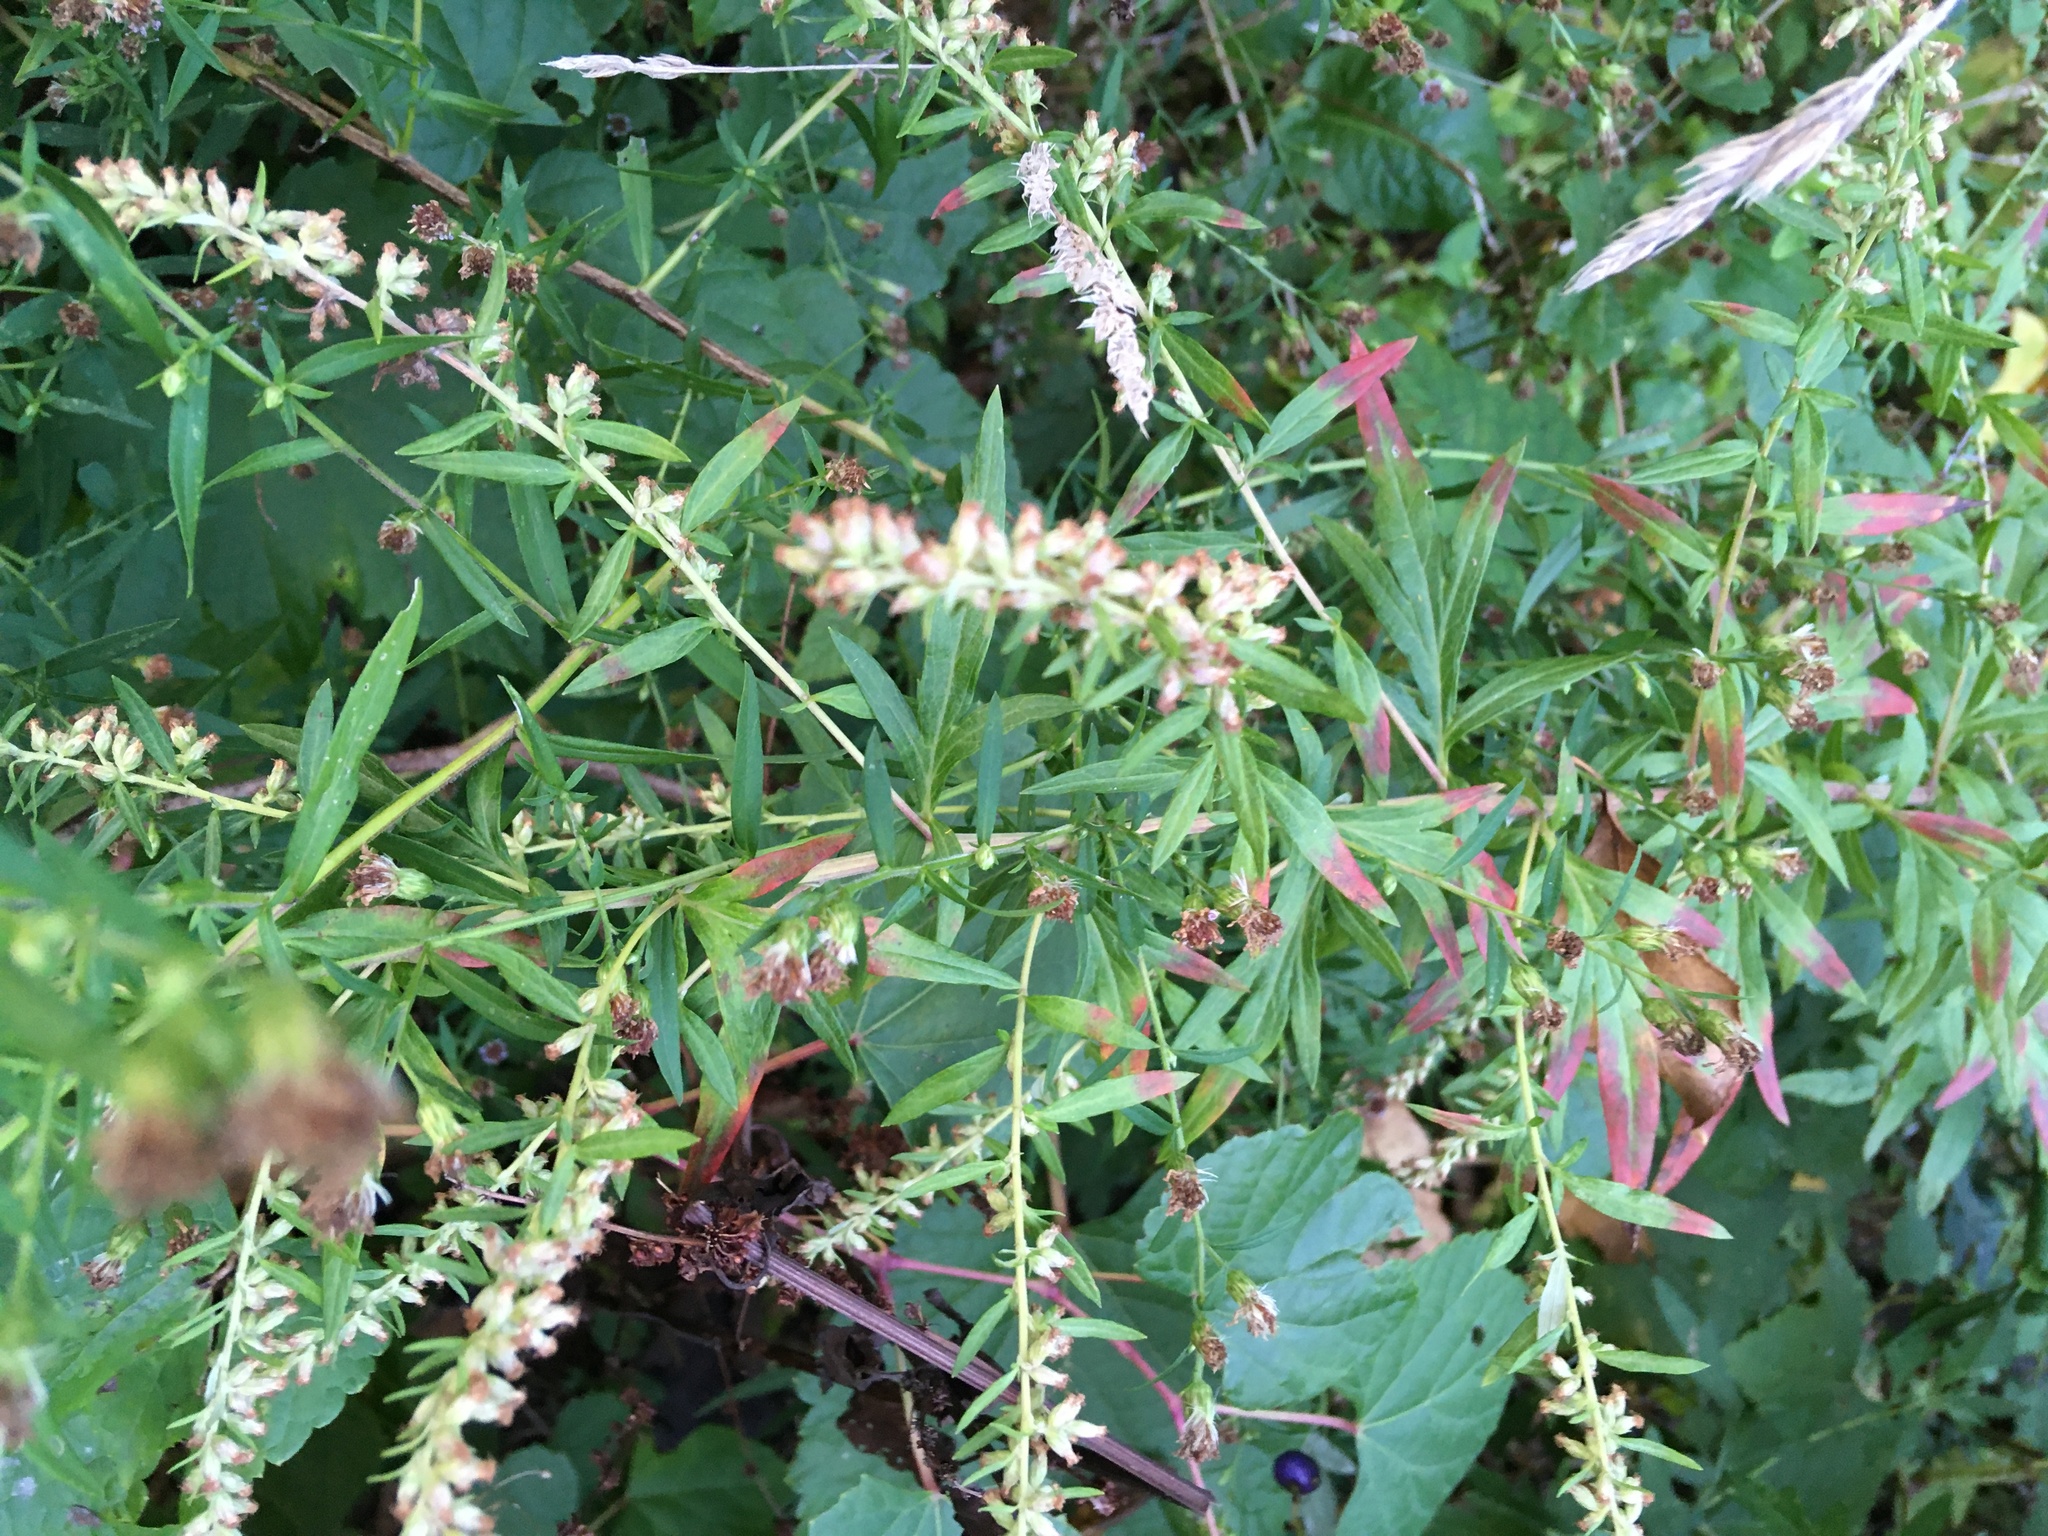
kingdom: Plantae
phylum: Tracheophyta
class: Magnoliopsida
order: Asterales
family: Asteraceae
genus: Artemisia
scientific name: Artemisia vulgaris
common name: Mugwort
